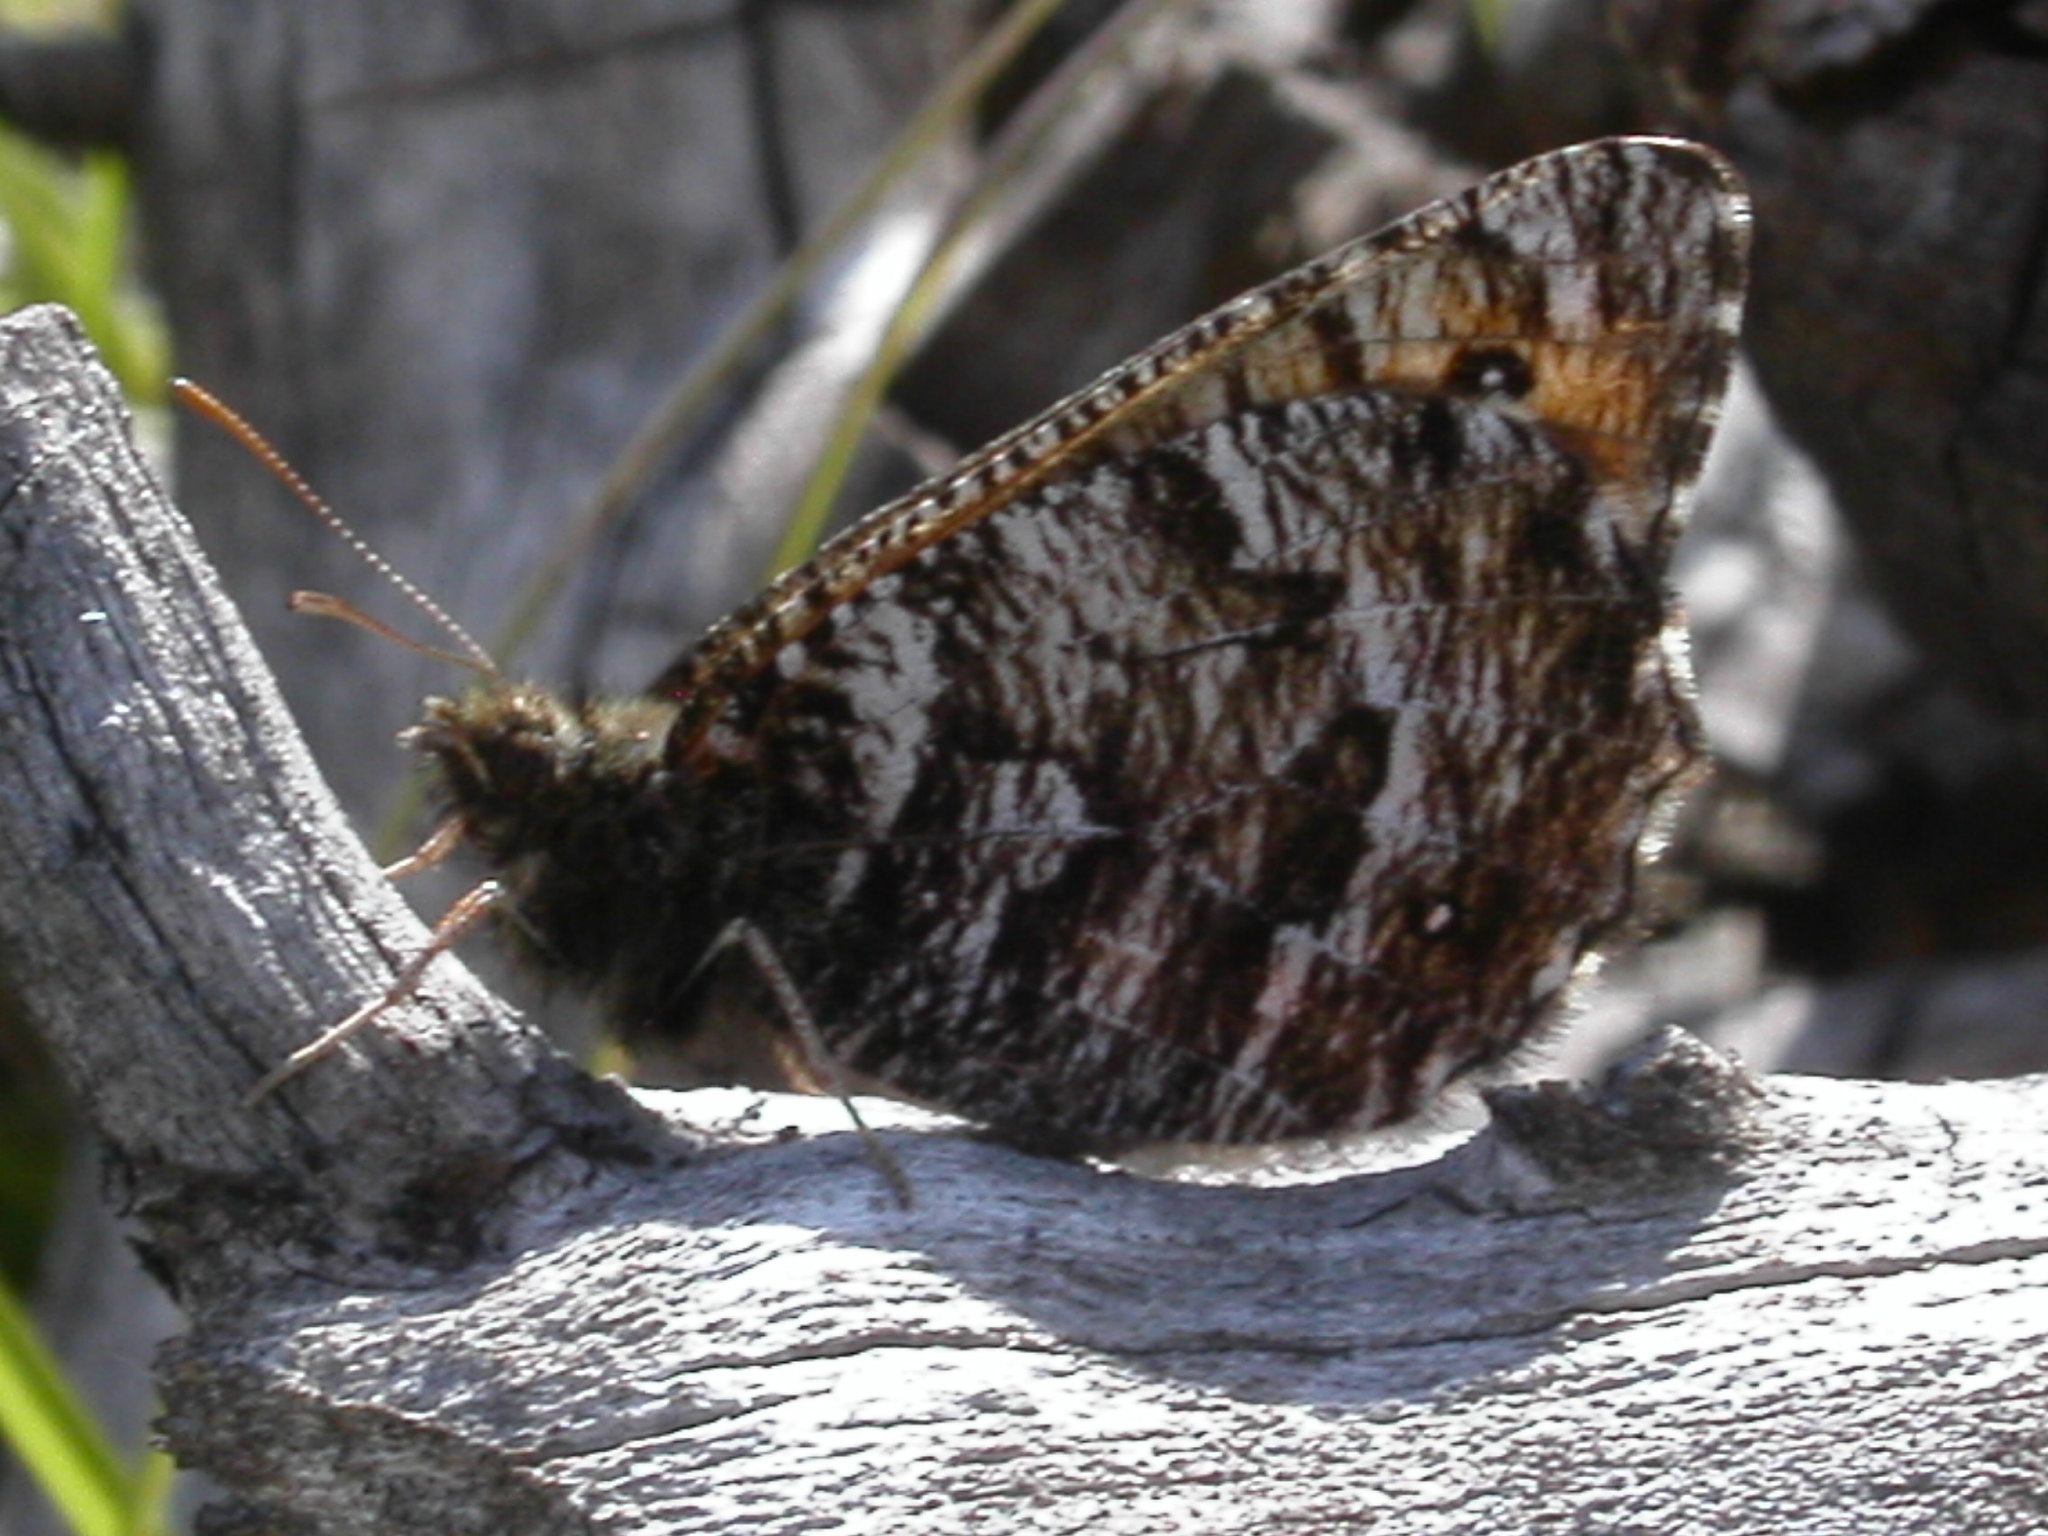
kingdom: Animalia
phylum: Arthropoda
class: Insecta
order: Lepidoptera
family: Nymphalidae
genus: Oeneis
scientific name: Oeneis chryxus
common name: Chryxus arctic
